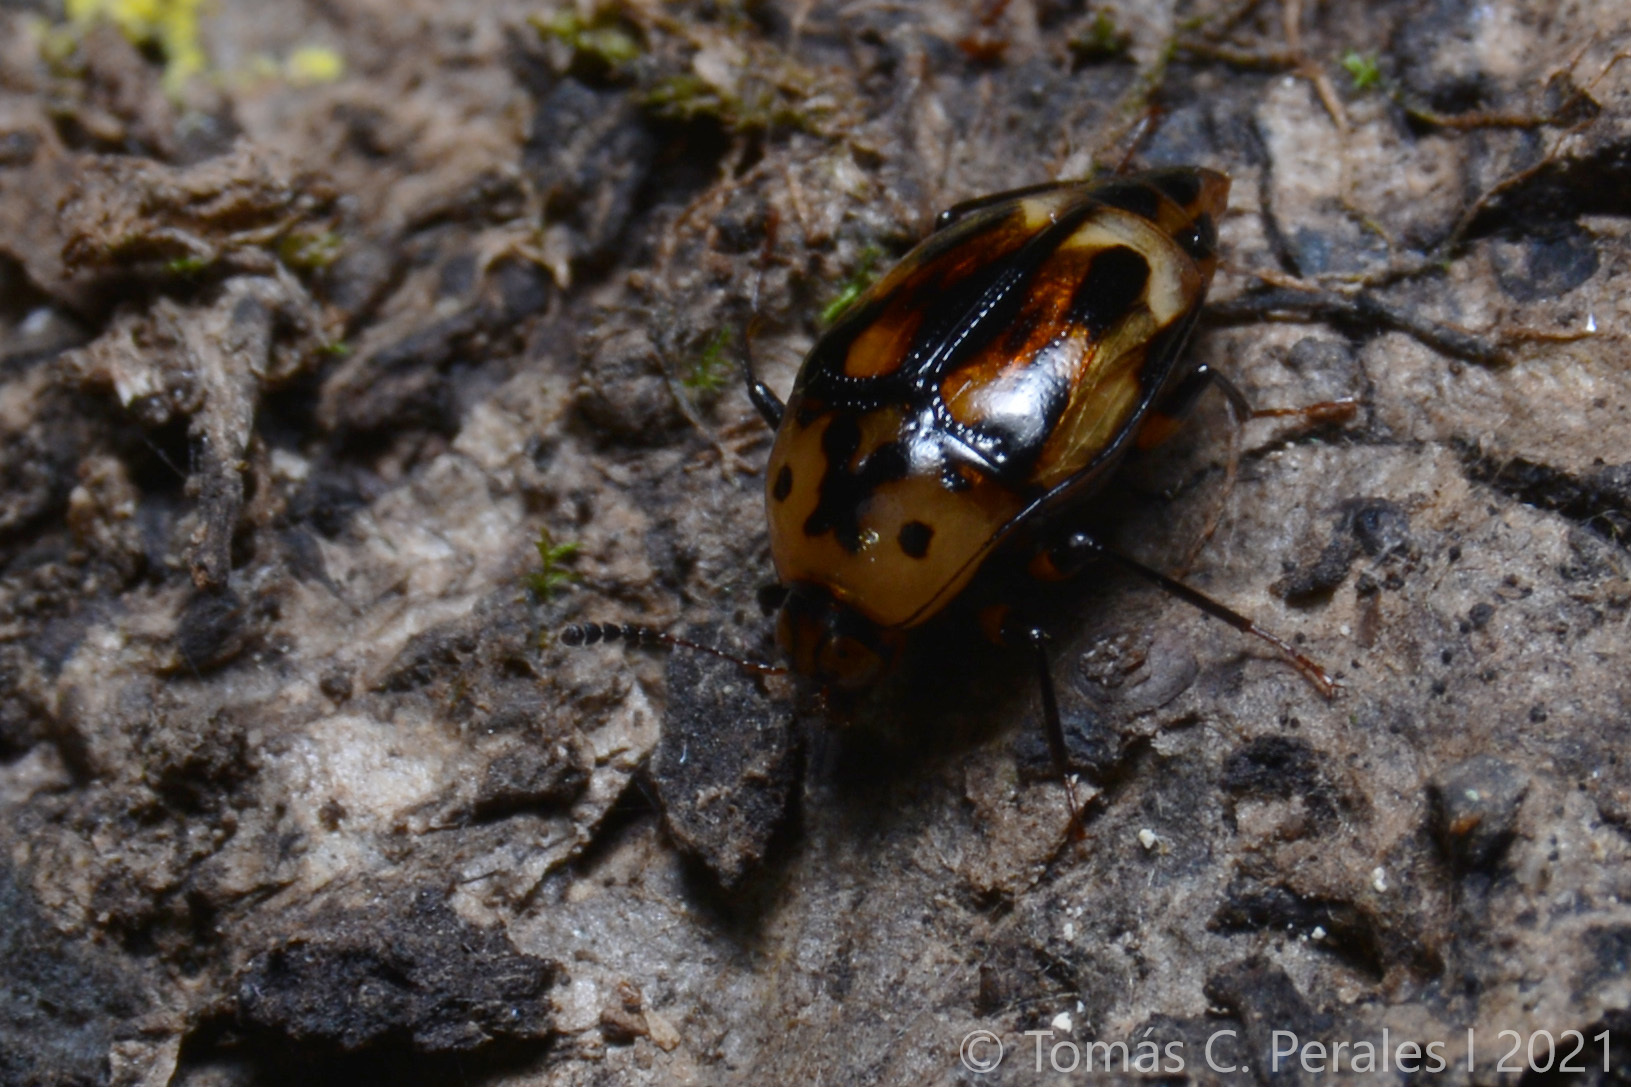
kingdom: Animalia
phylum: Arthropoda
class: Insecta
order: Coleoptera
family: Staphylinidae
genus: Scaphidium
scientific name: Scaphidium exclamans
